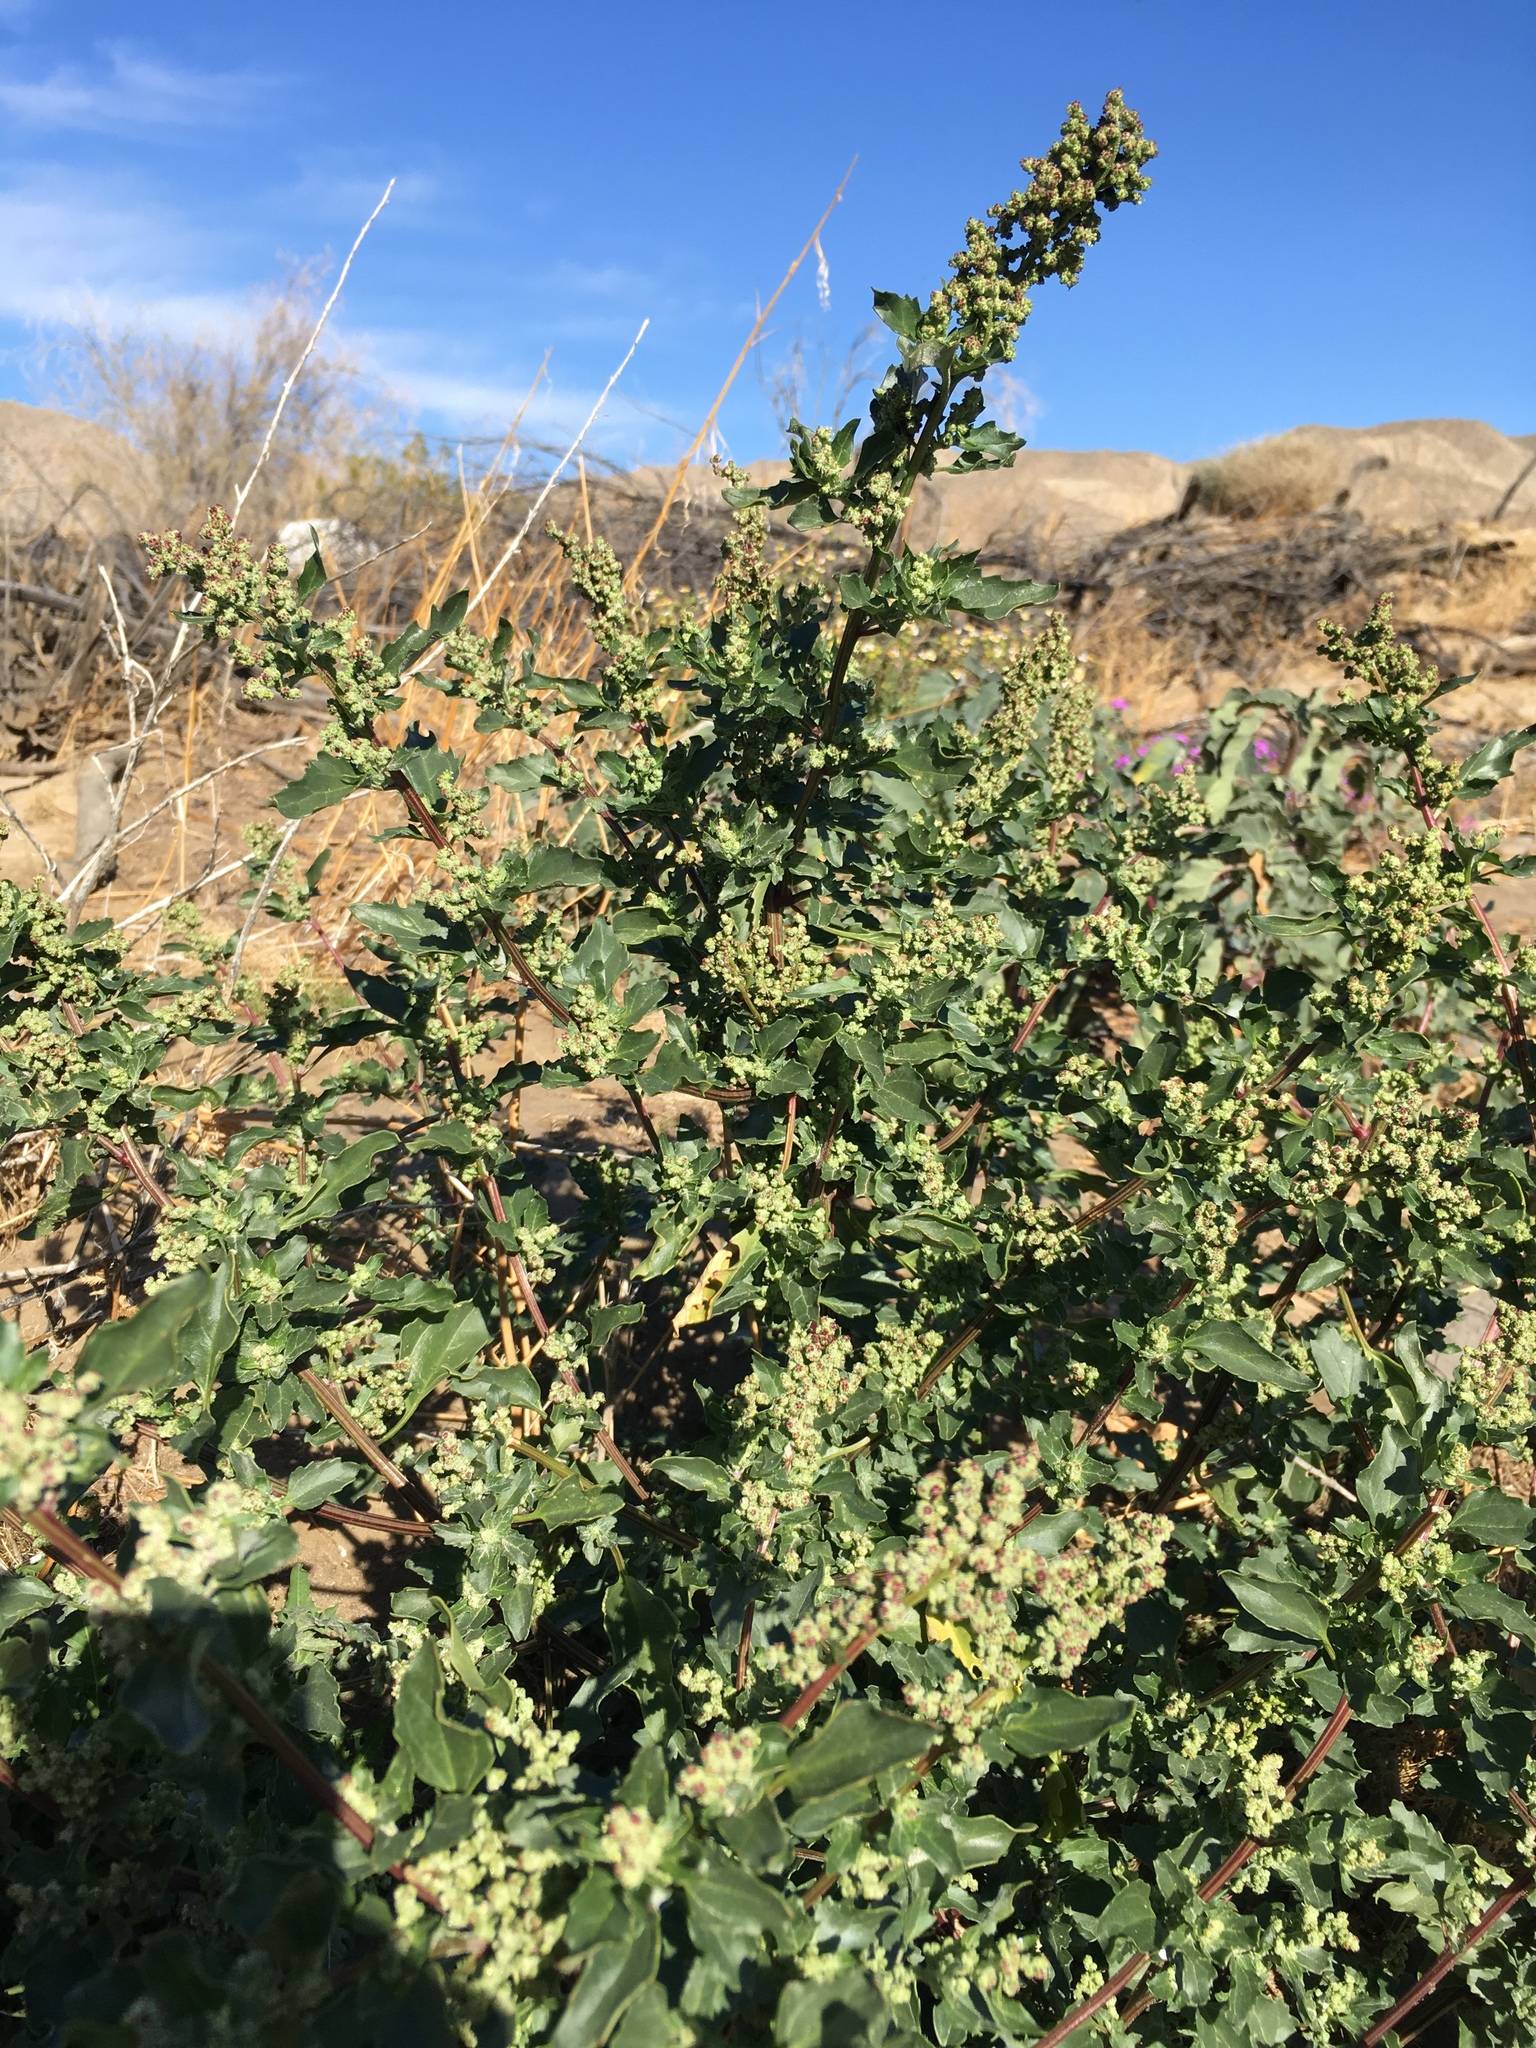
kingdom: Plantae
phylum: Tracheophyta
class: Magnoliopsida
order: Caryophyllales
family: Amaranthaceae
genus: Chenopodiastrum
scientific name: Chenopodiastrum murale
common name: Sowbane
